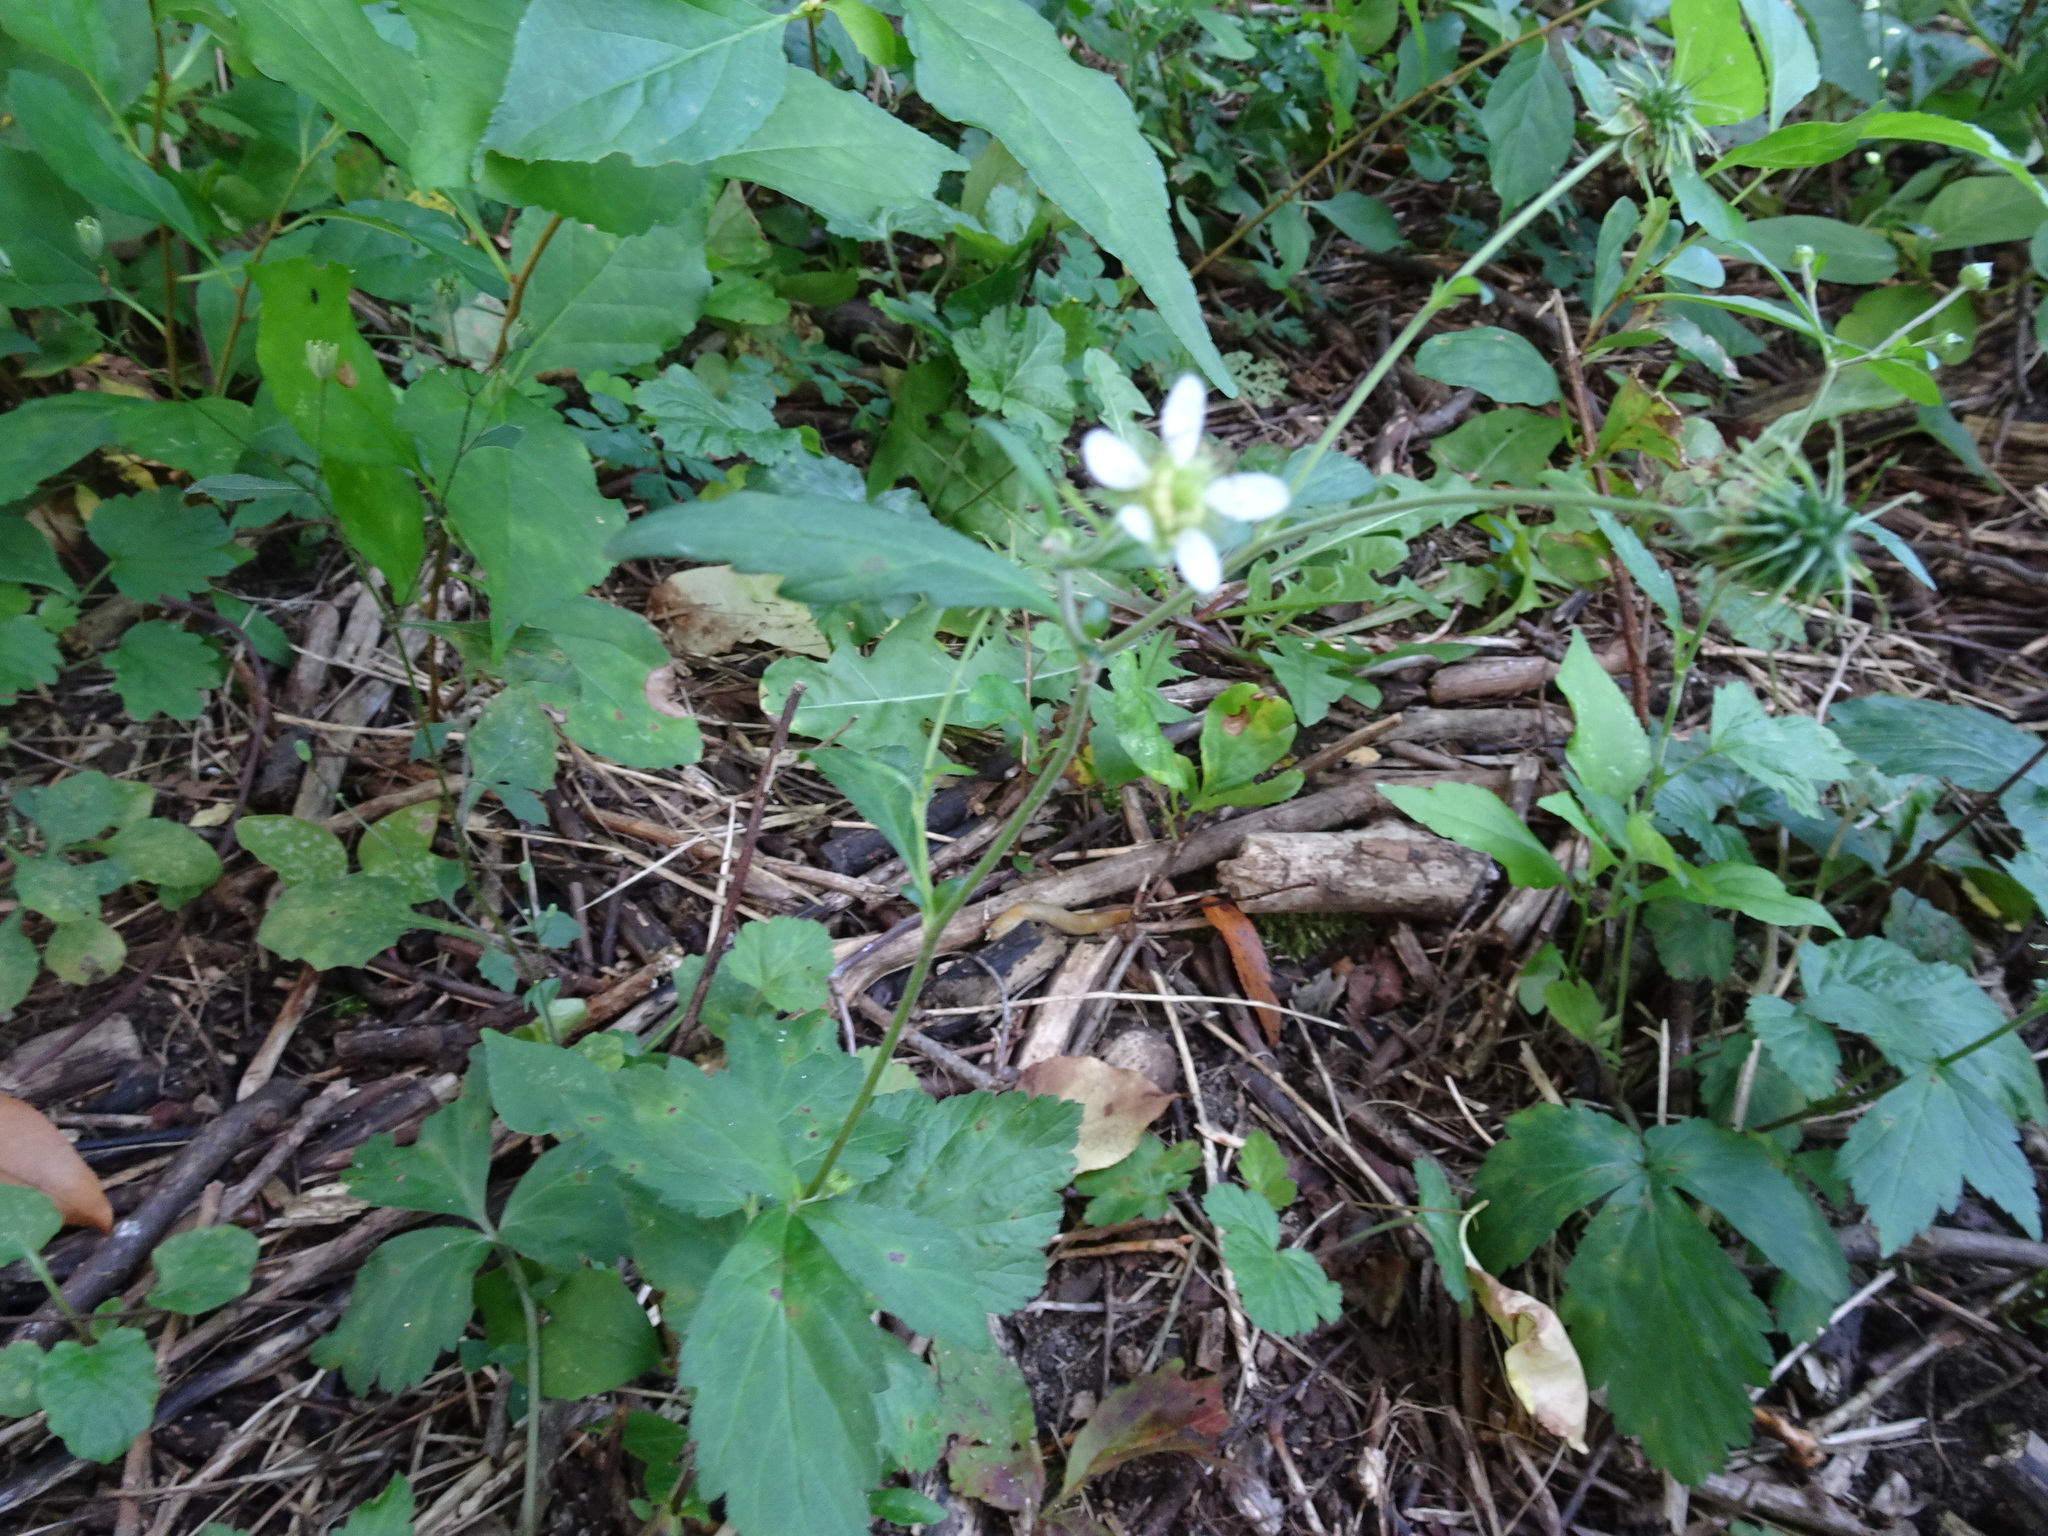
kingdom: Plantae
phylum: Tracheophyta
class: Magnoliopsida
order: Rosales
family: Rosaceae
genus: Geum
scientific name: Geum canadense
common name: White avens
